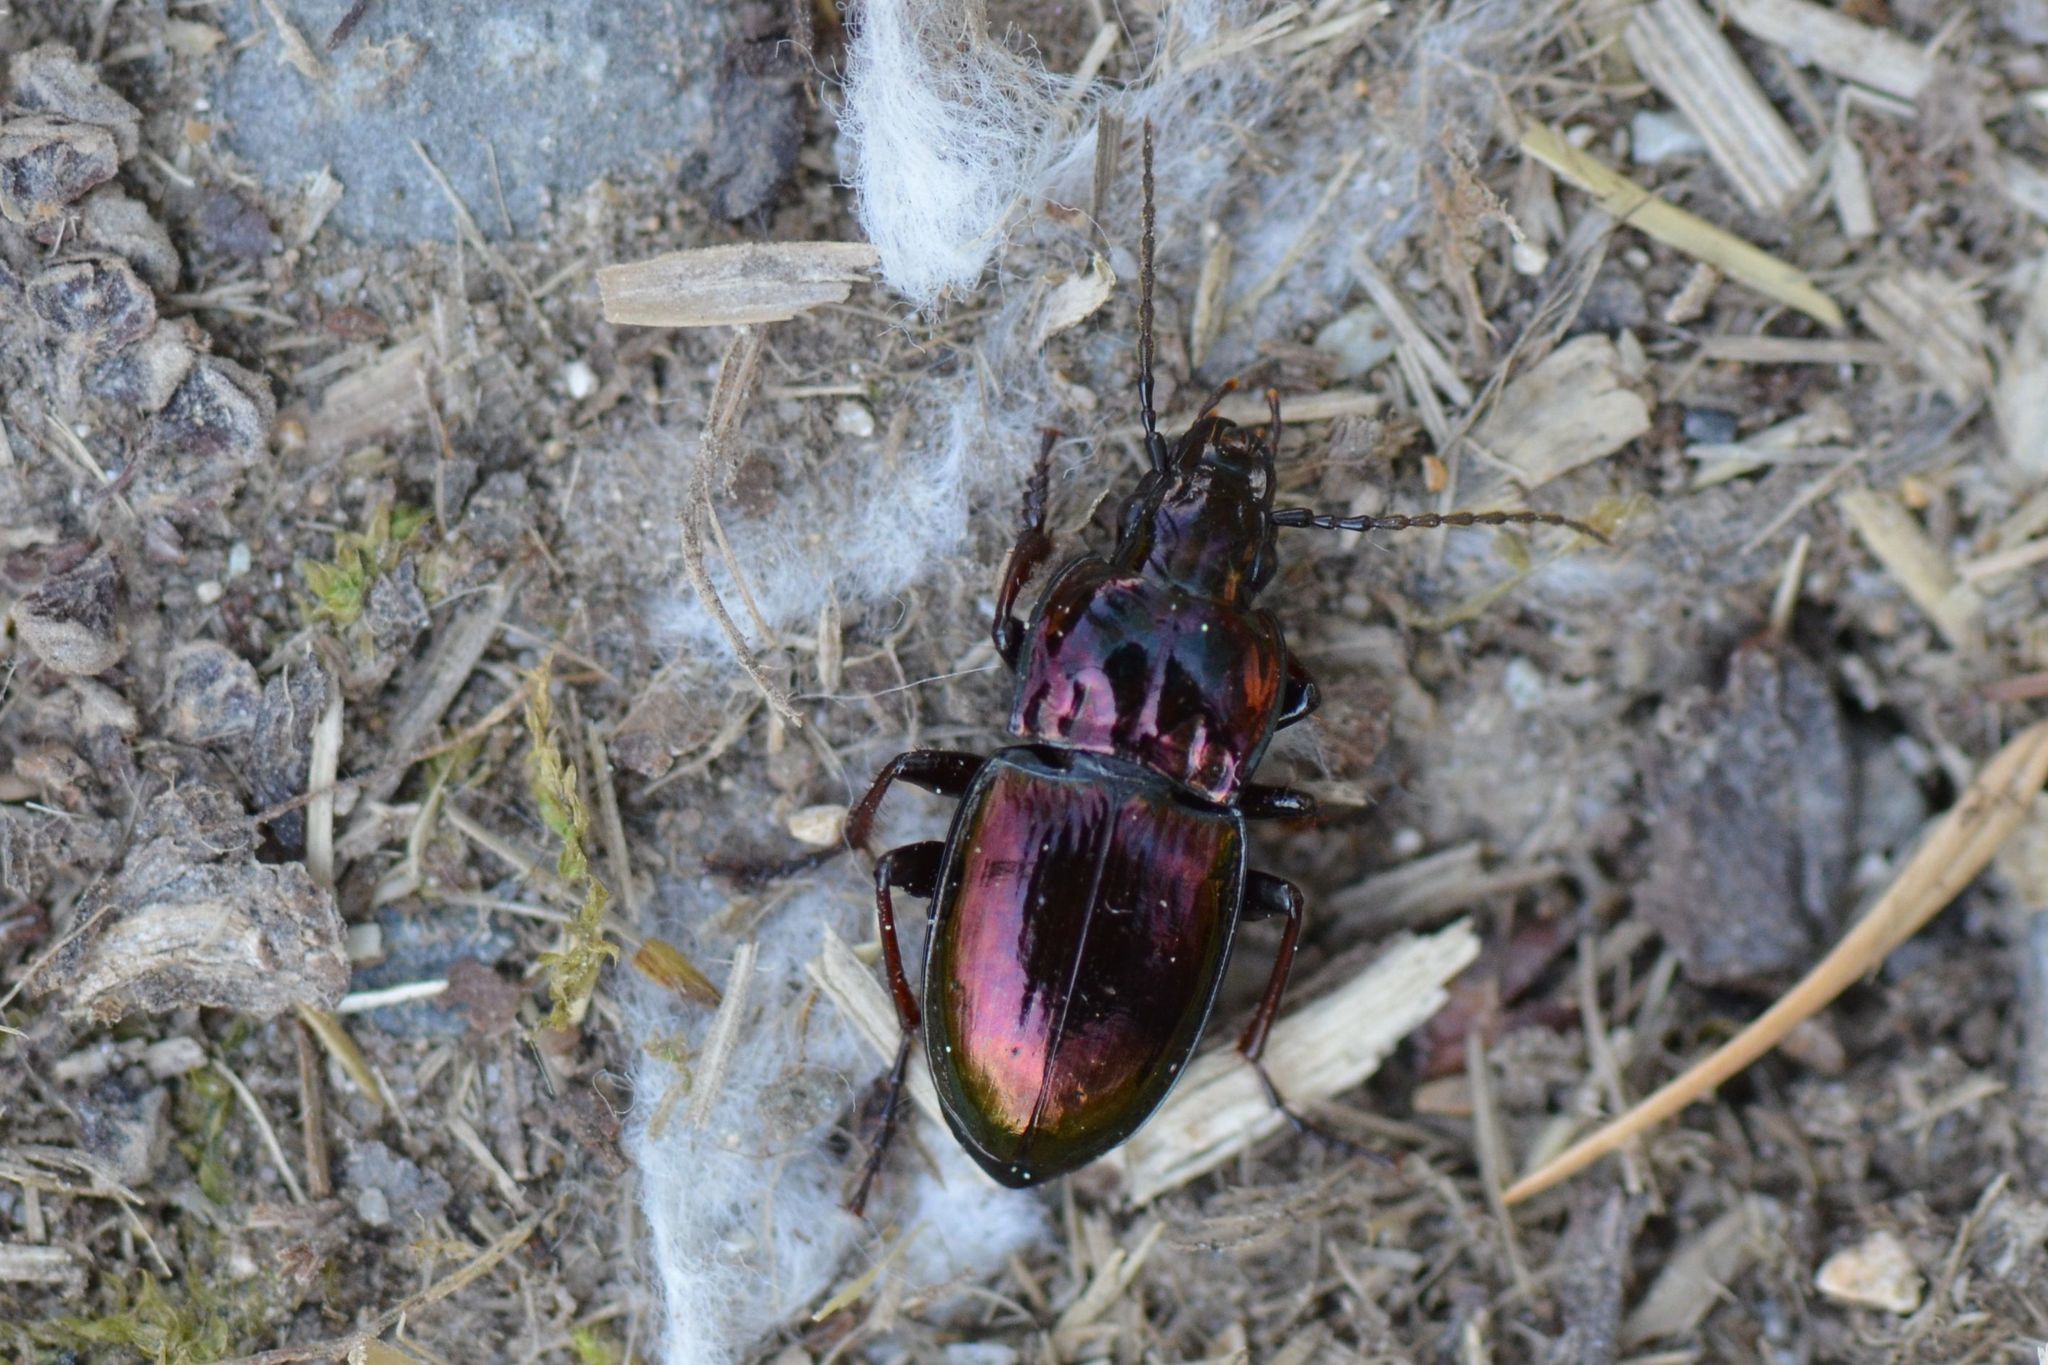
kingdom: Animalia
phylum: Arthropoda
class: Insecta
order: Coleoptera
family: Carabidae
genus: Pterostichus
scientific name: Pterostichus burmeisteri
